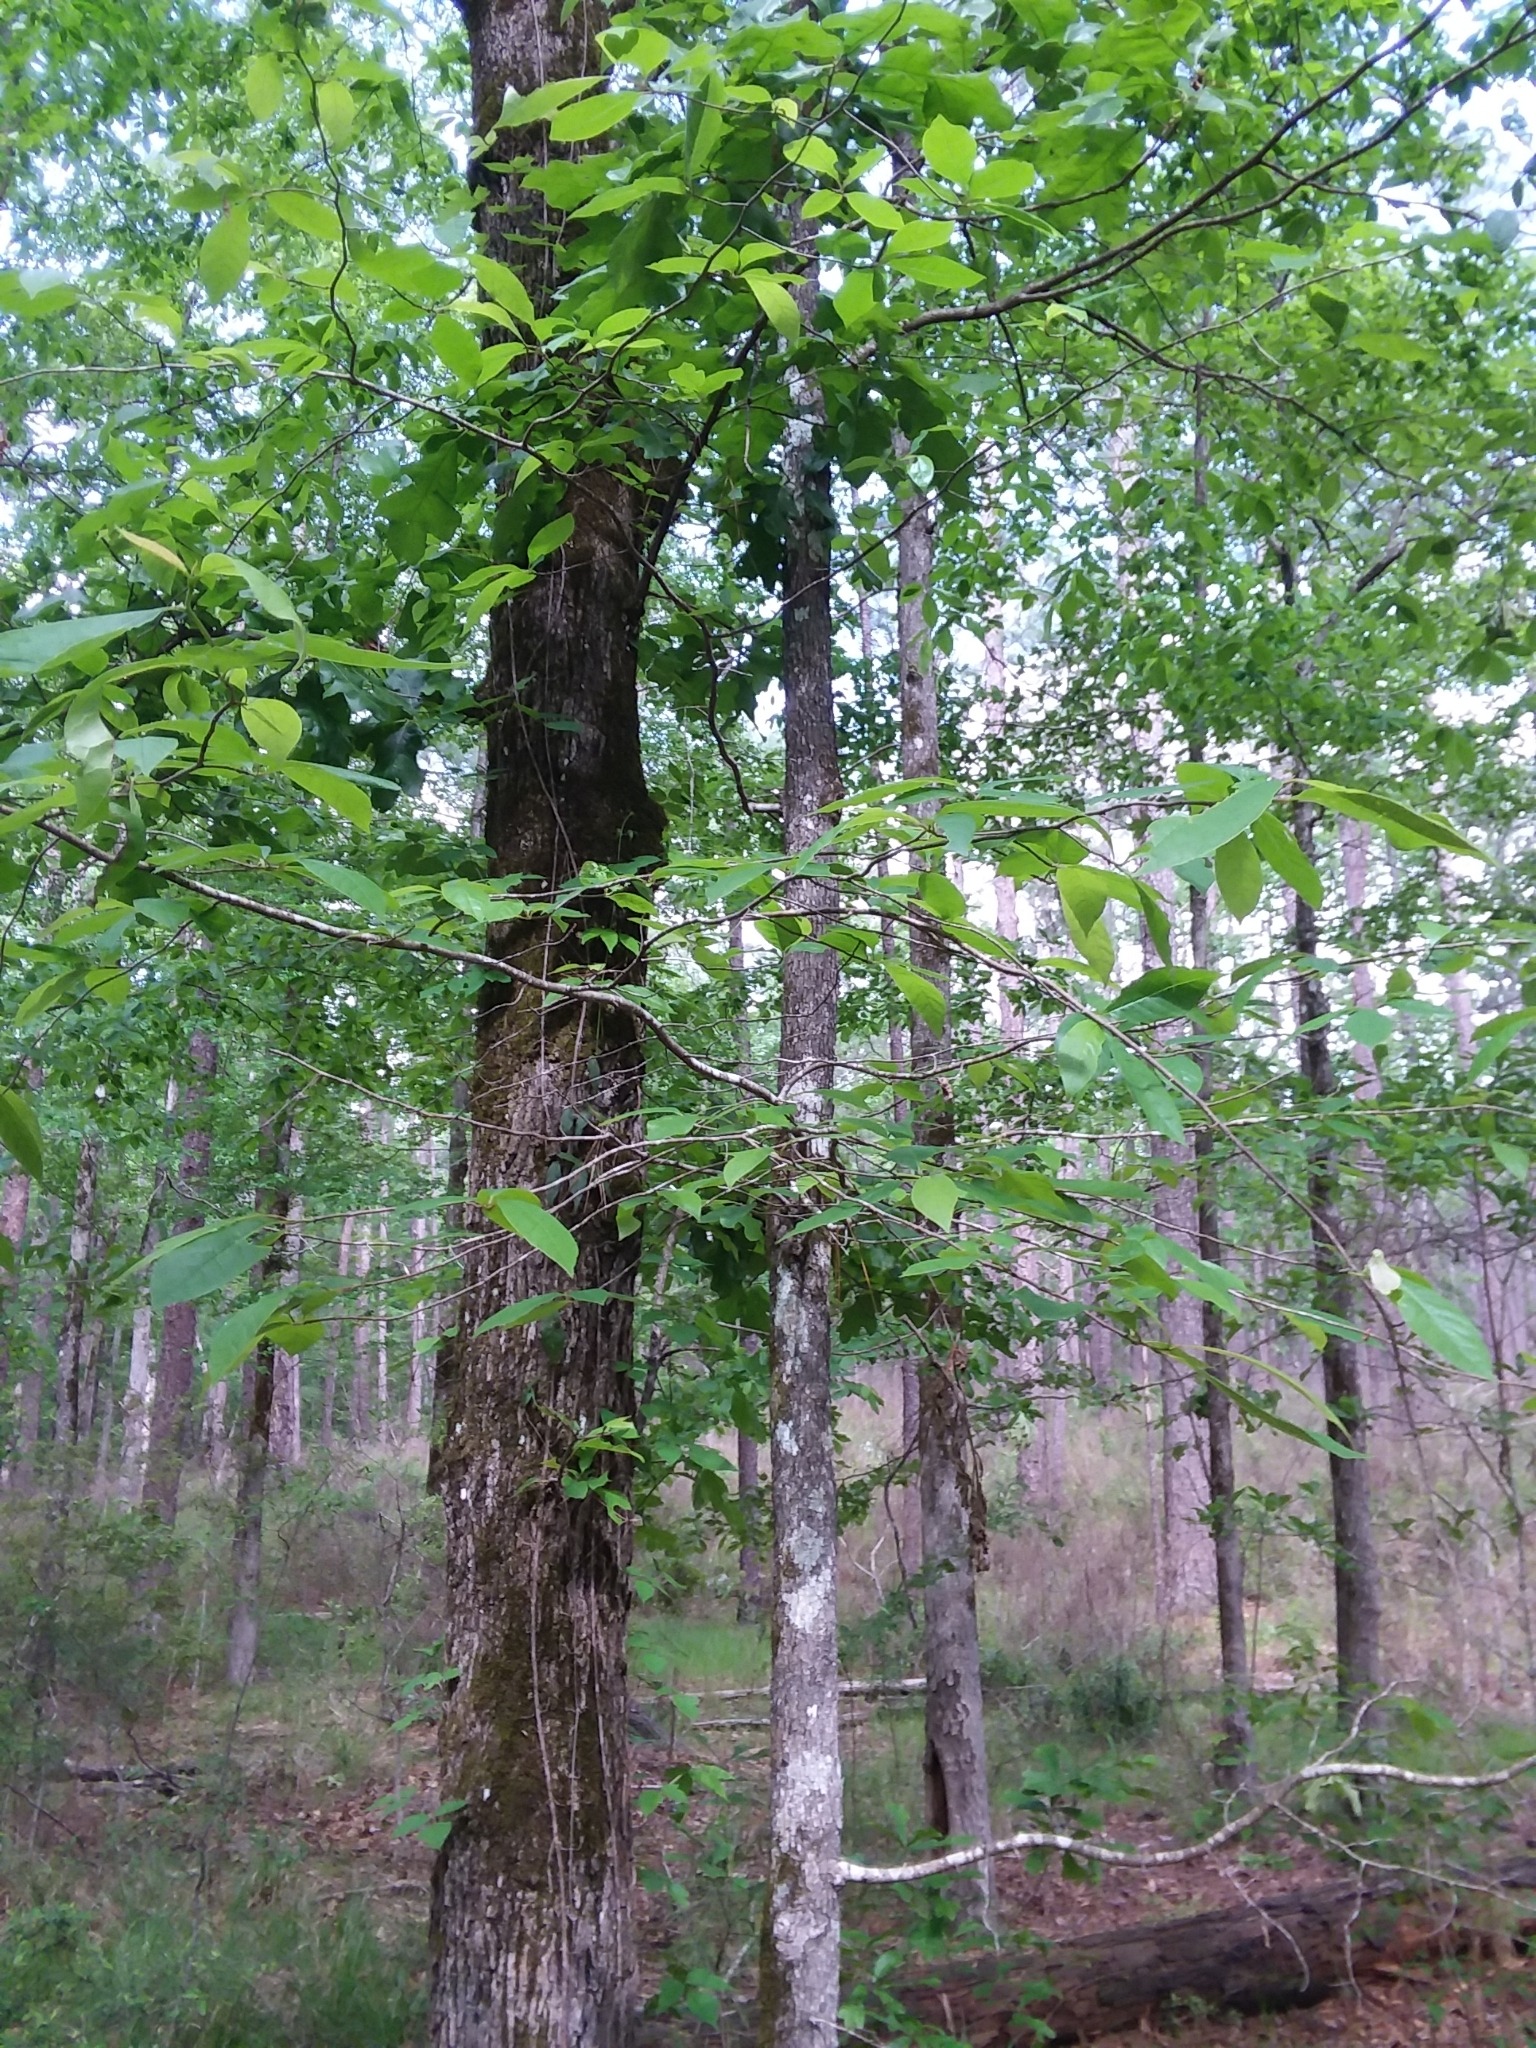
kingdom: Plantae
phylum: Tracheophyta
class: Magnoliopsida
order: Cornales
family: Nyssaceae
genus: Nyssa
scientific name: Nyssa sylvatica
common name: Black tupelo
